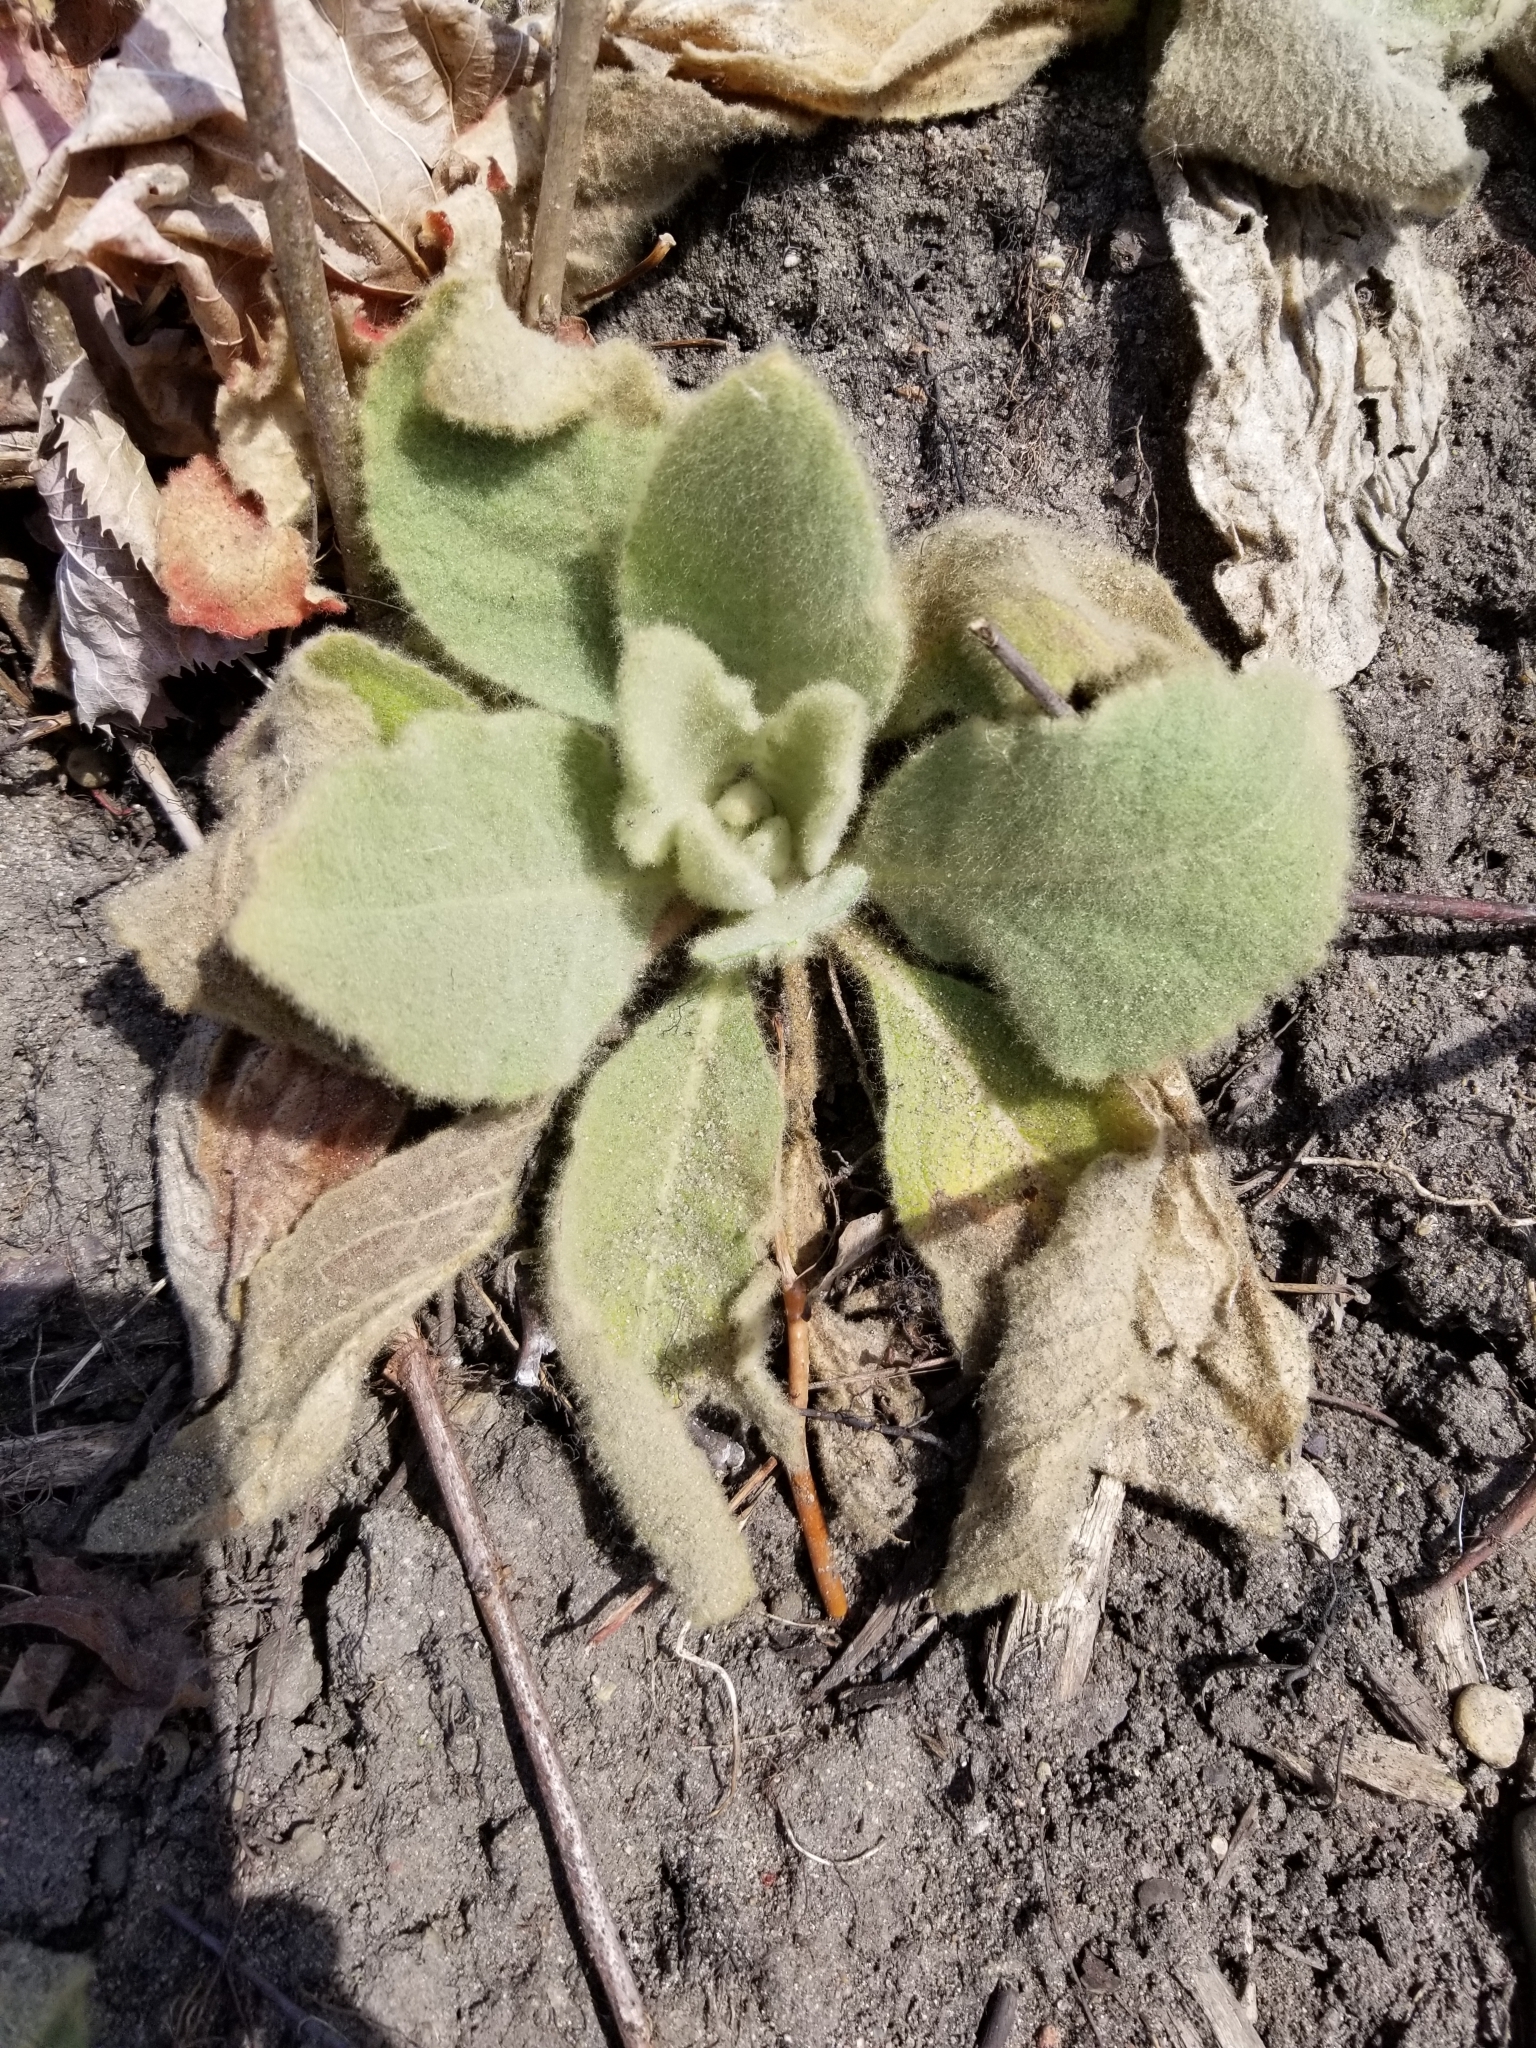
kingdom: Plantae
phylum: Tracheophyta
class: Magnoliopsida
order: Lamiales
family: Scrophulariaceae
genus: Verbascum
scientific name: Verbascum thapsus
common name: Common mullein
